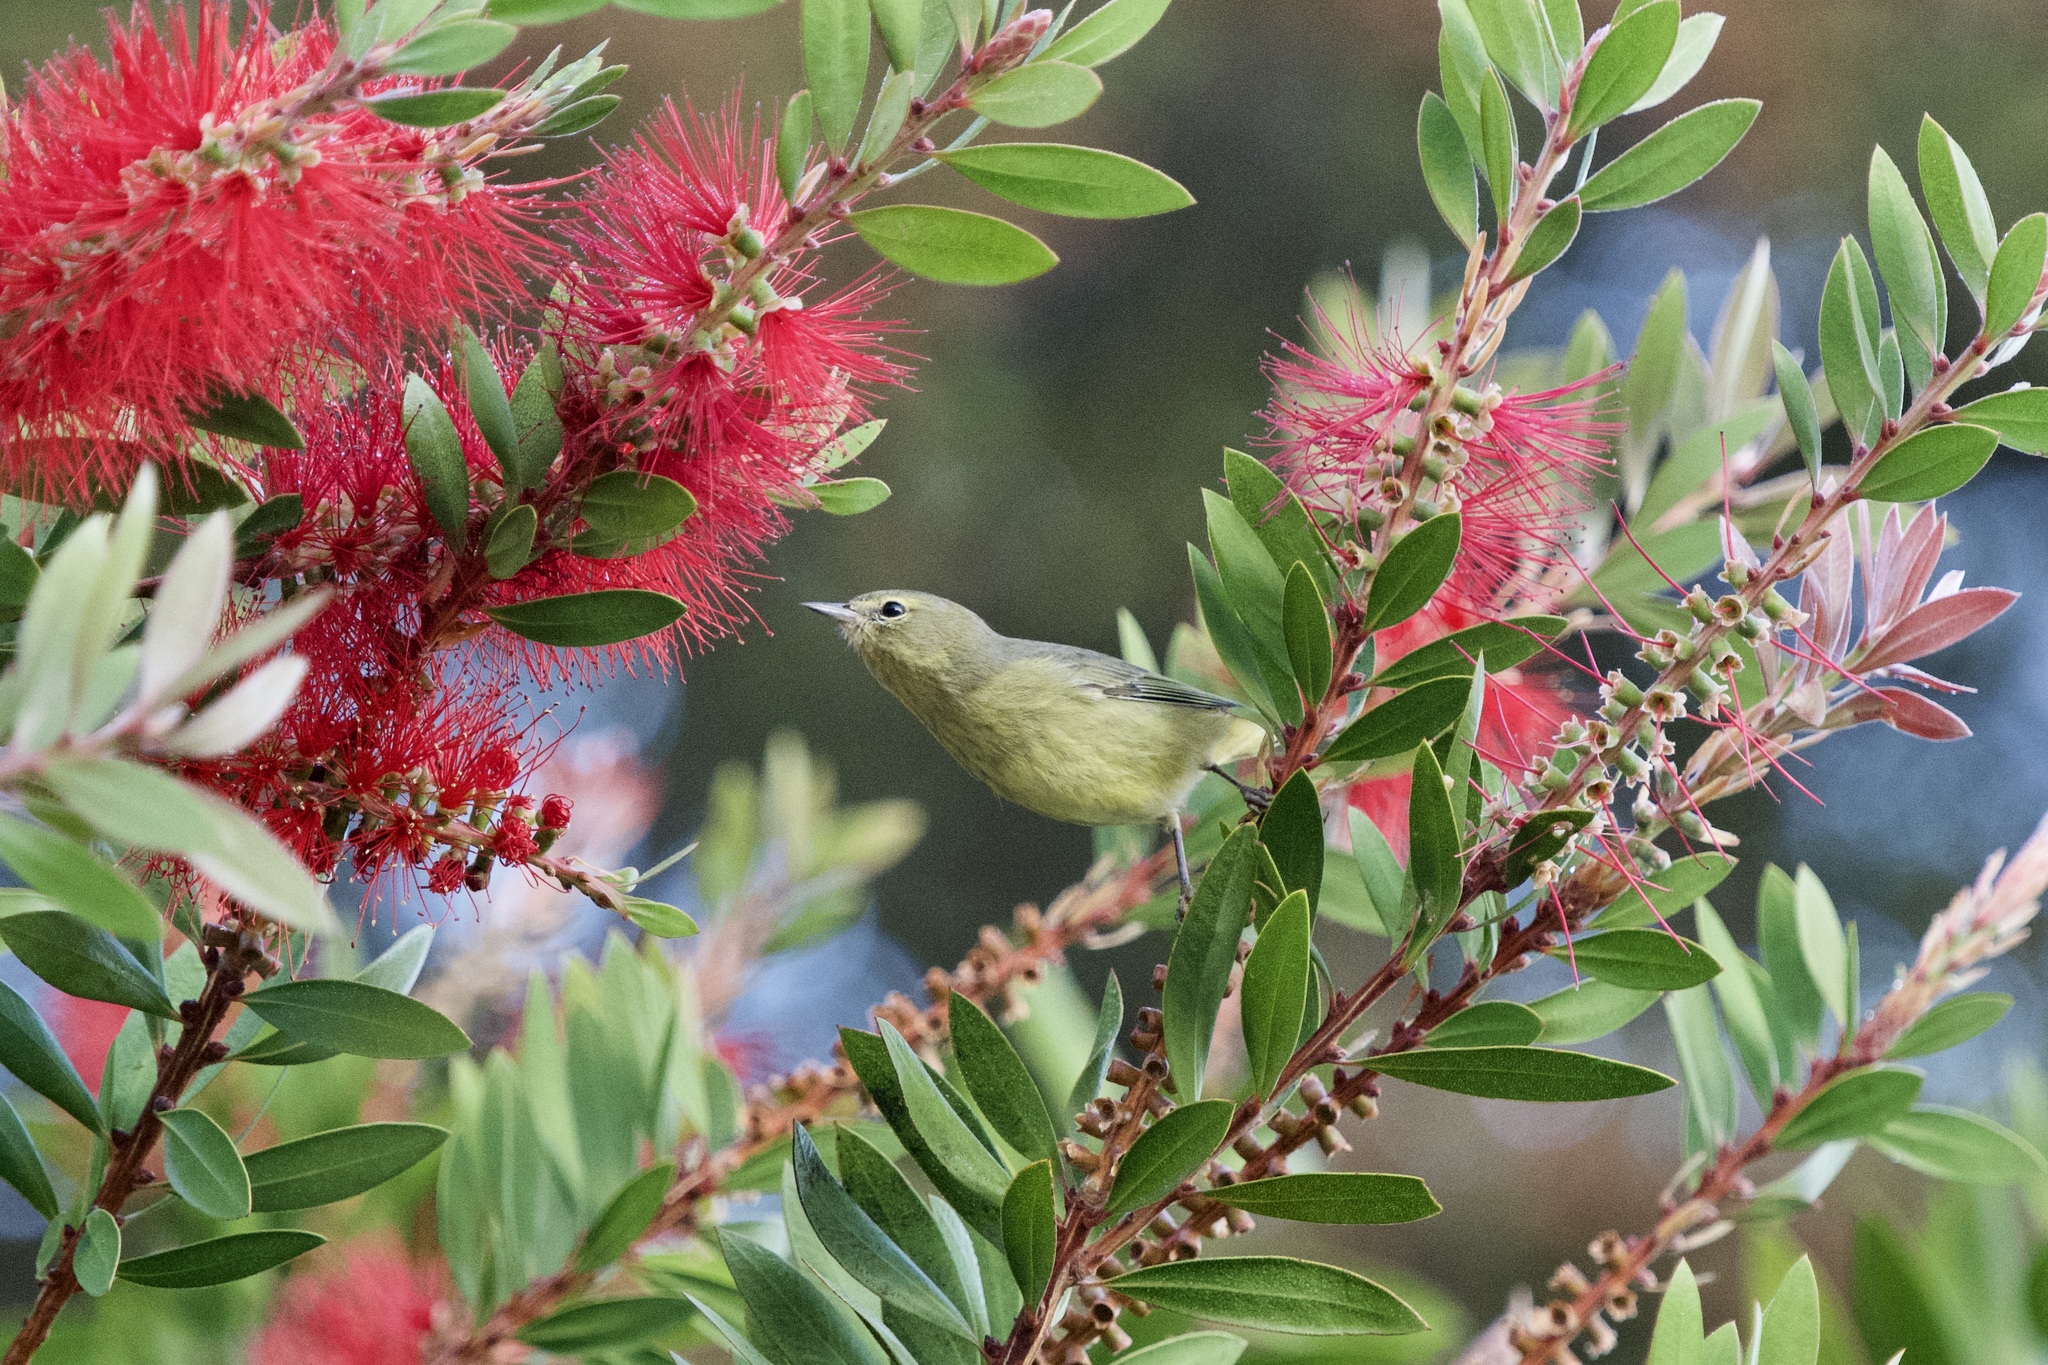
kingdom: Animalia
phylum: Chordata
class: Aves
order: Passeriformes
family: Parulidae
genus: Leiothlypis
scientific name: Leiothlypis celata
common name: Orange-crowned warbler
